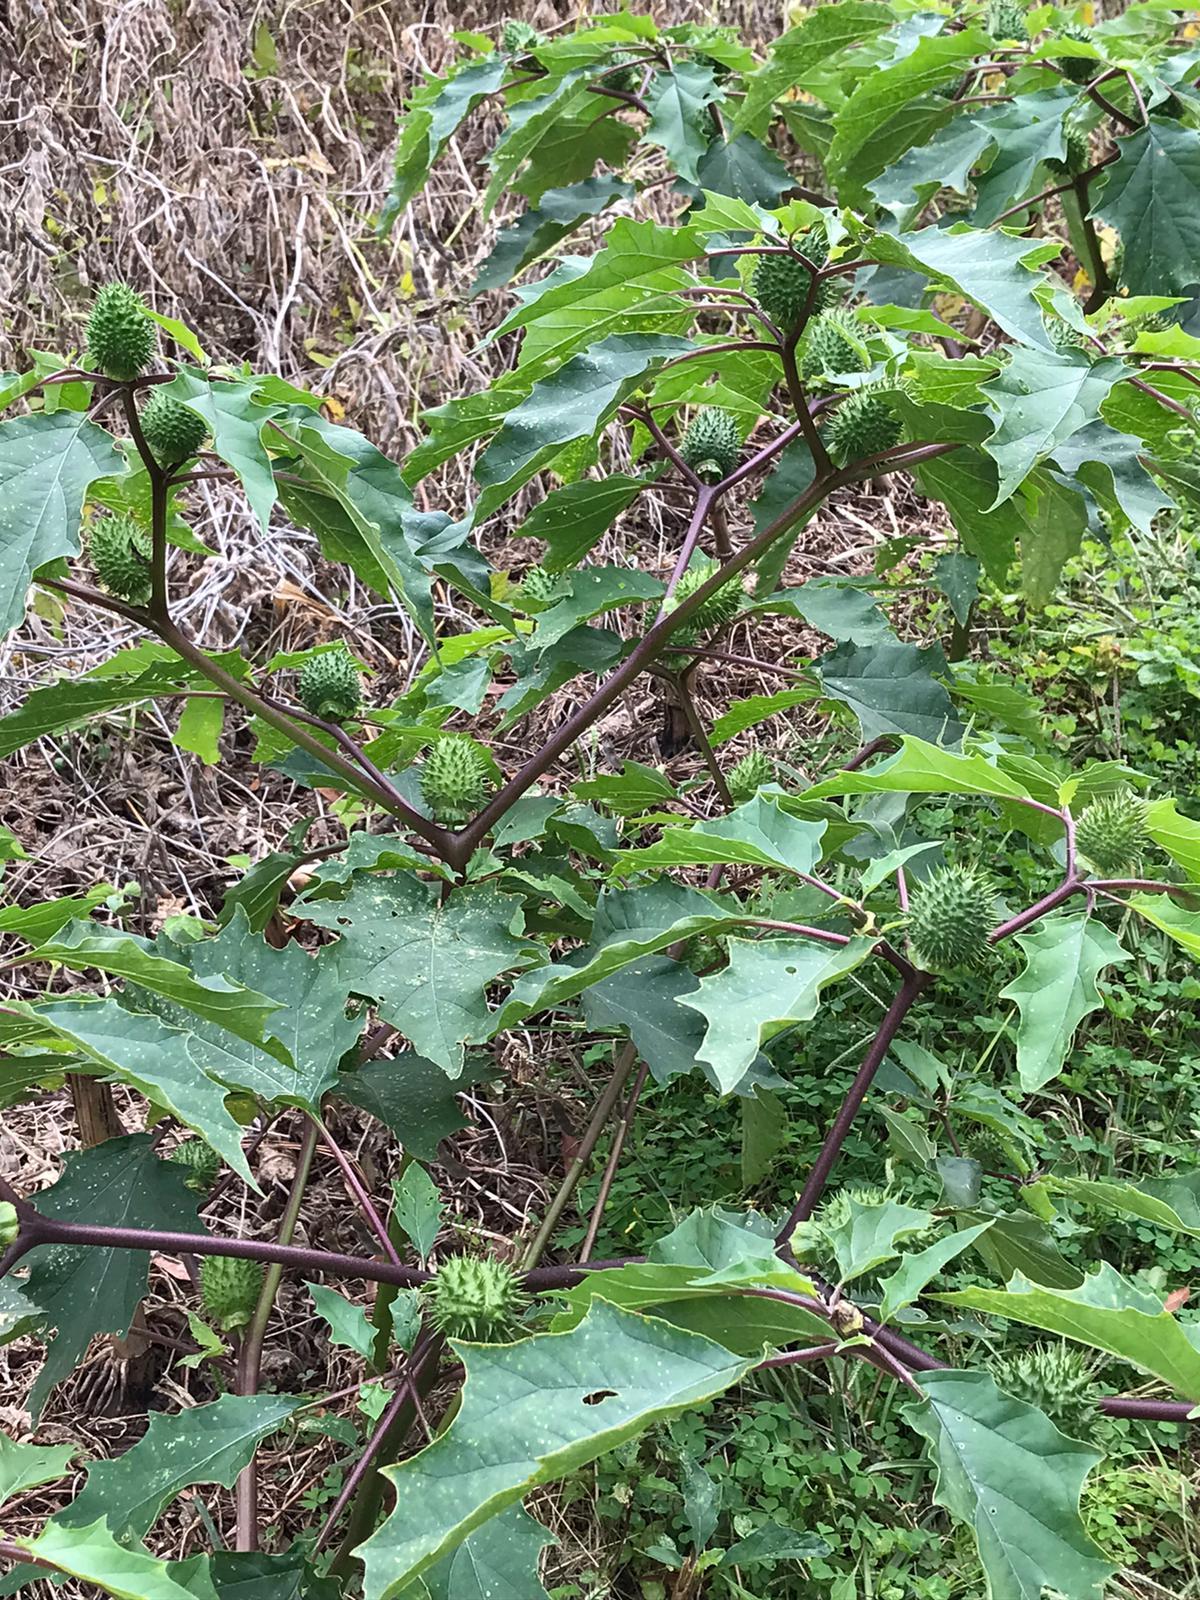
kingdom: Plantae
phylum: Tracheophyta
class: Magnoliopsida
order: Solanales
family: Solanaceae
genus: Datura
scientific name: Datura stramonium
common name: Thorn-apple
